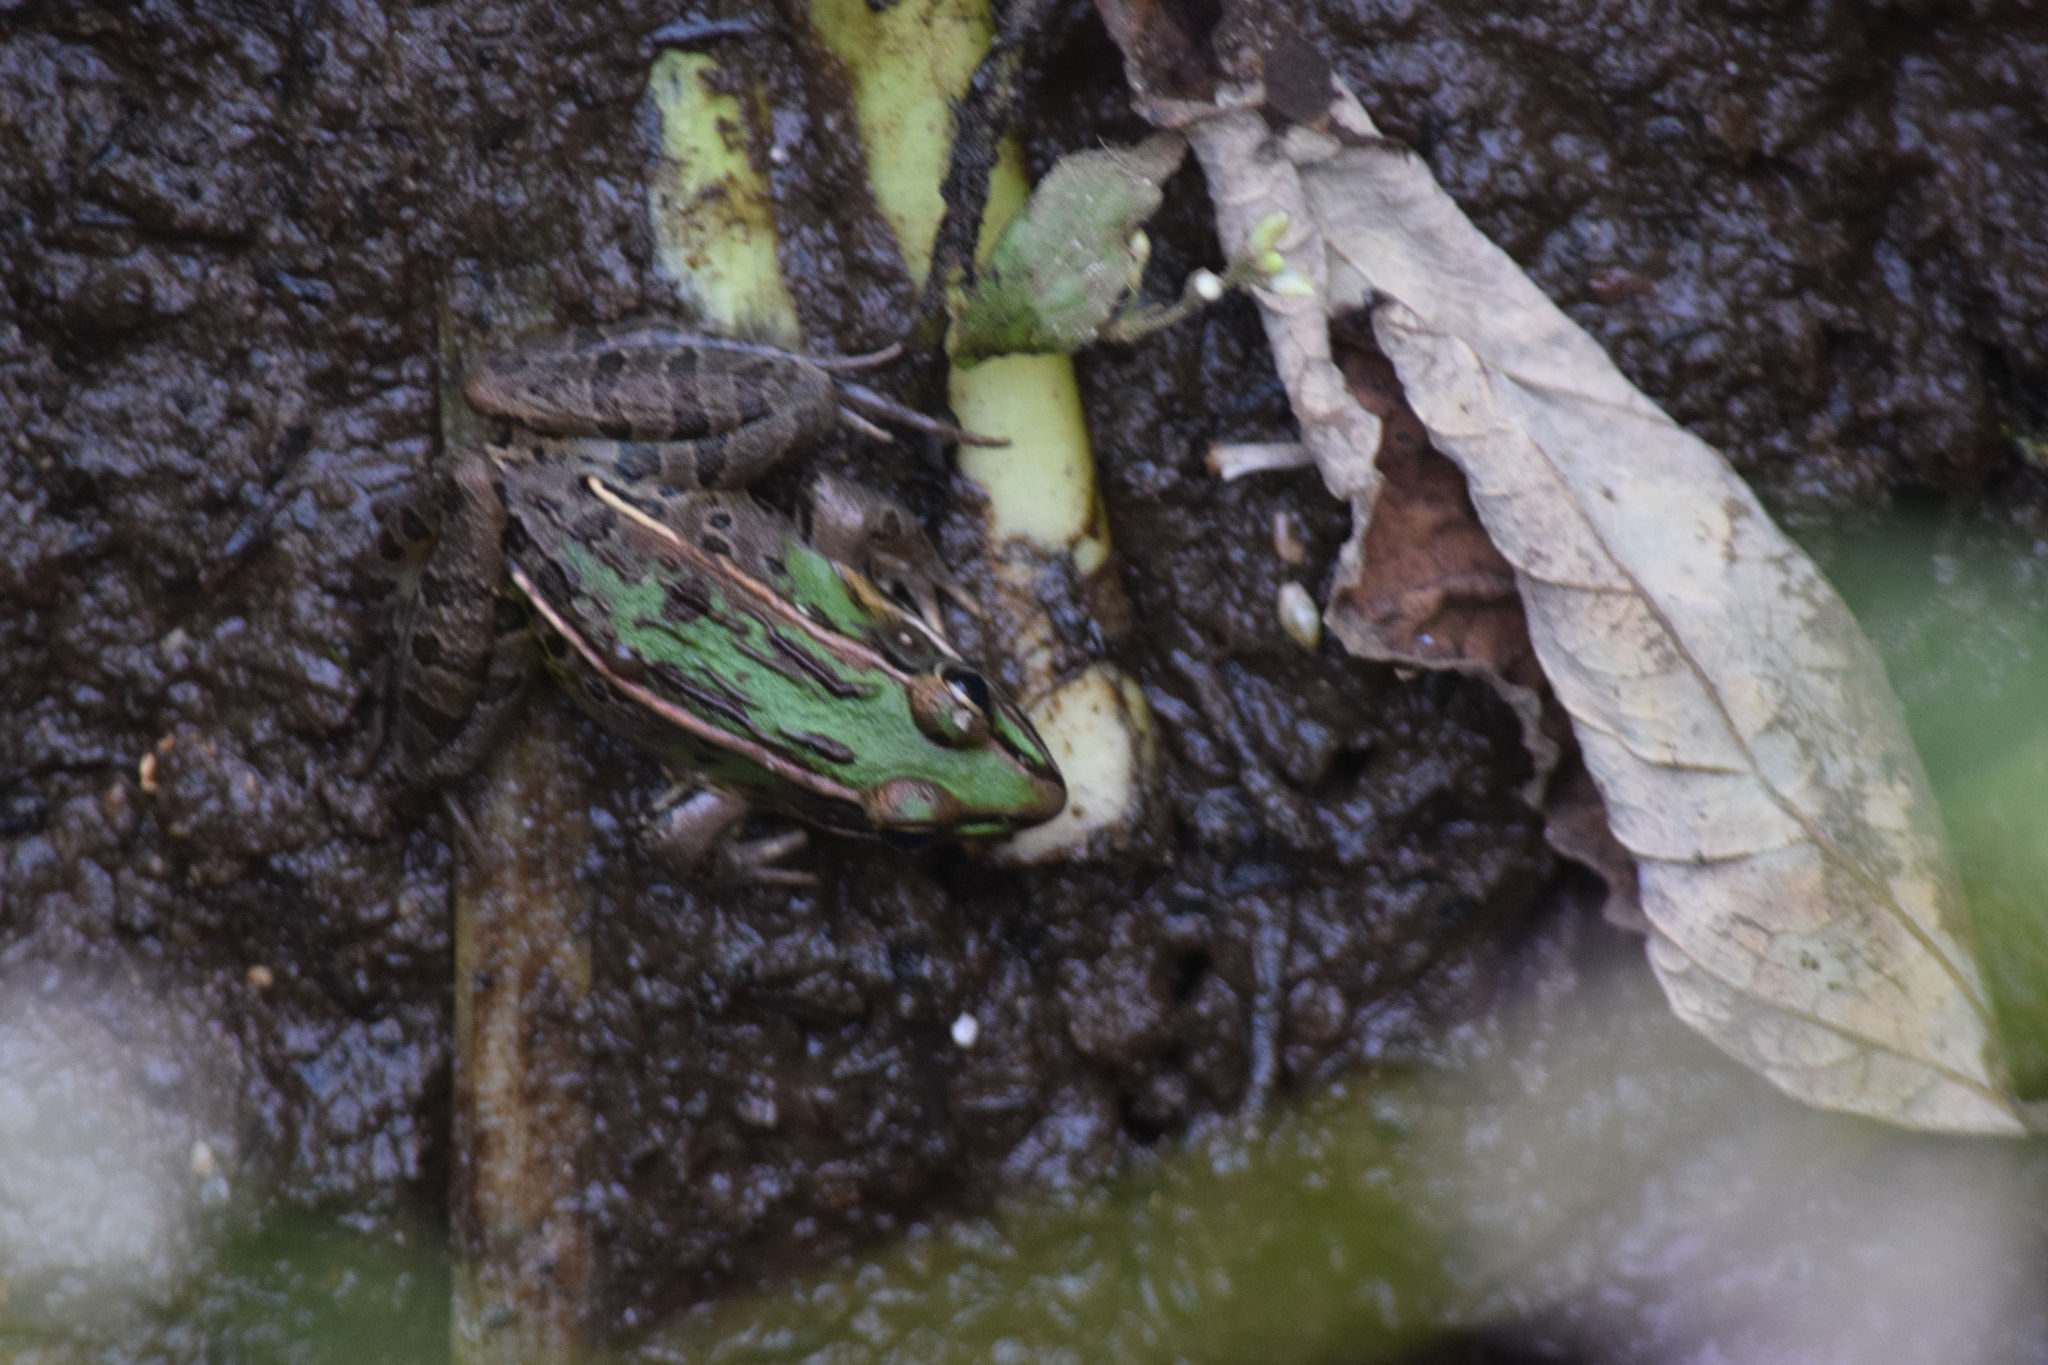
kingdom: Animalia
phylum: Chordata
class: Amphibia
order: Anura
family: Ranidae
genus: Lithobates
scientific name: Lithobates sphenocephalus
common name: Southern leopard frog
